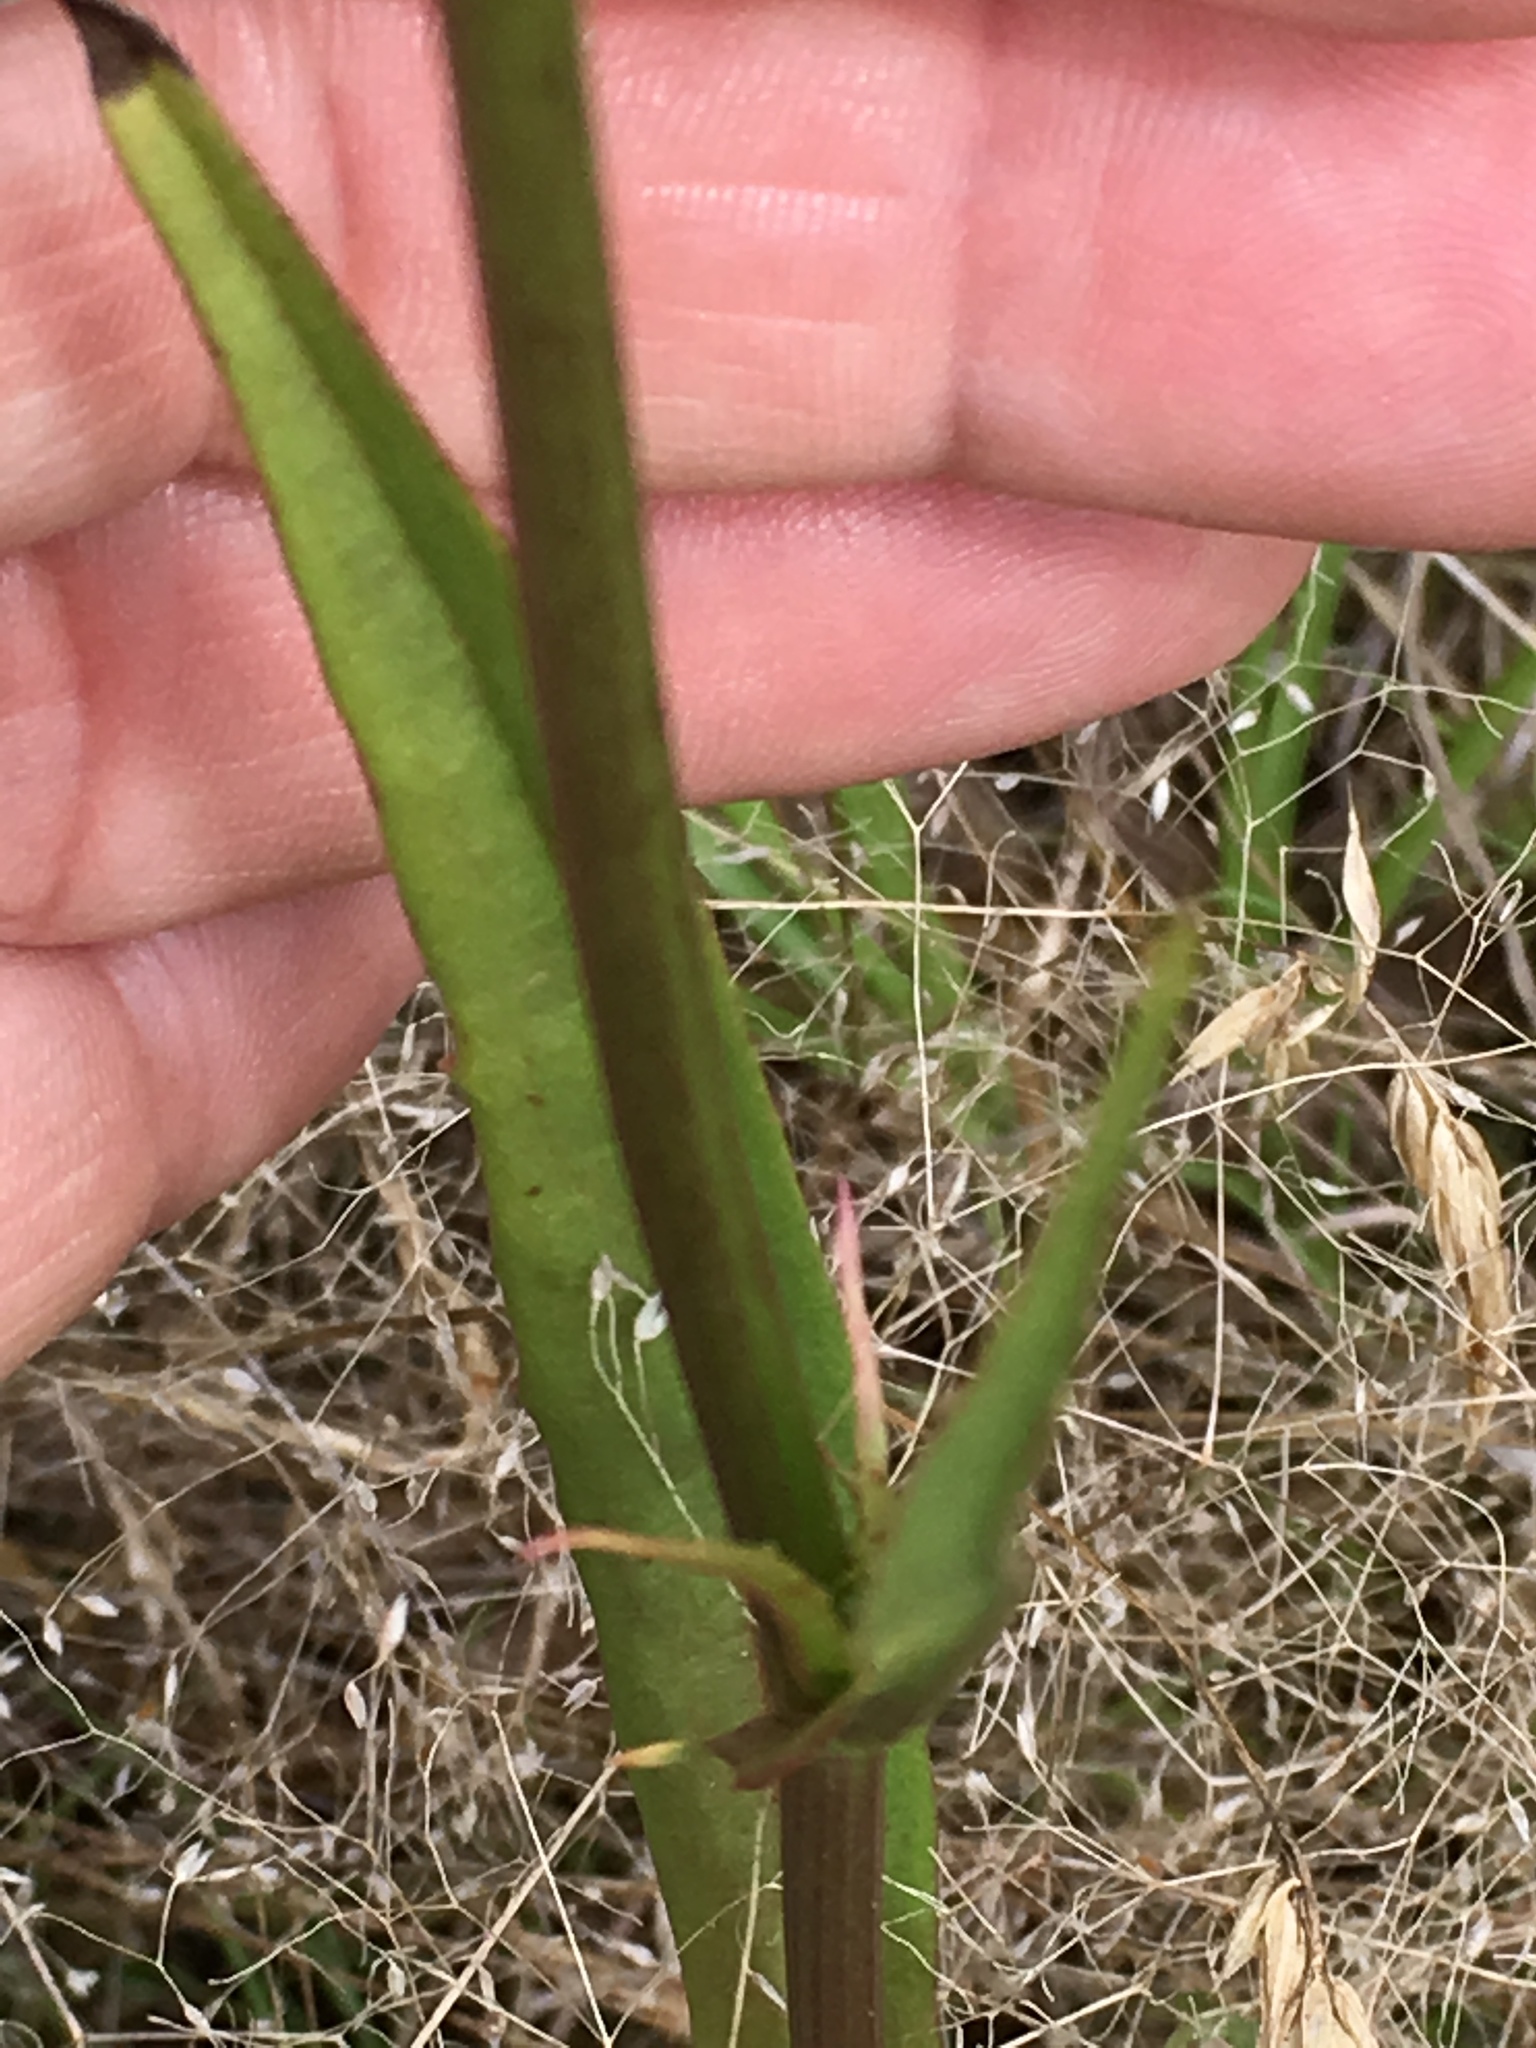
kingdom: Plantae
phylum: Tracheophyta
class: Magnoliopsida
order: Asterales
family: Asteraceae
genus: Pyrrhopappus
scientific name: Pyrrhopappus carolinianus
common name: Carolina desert-chicory
